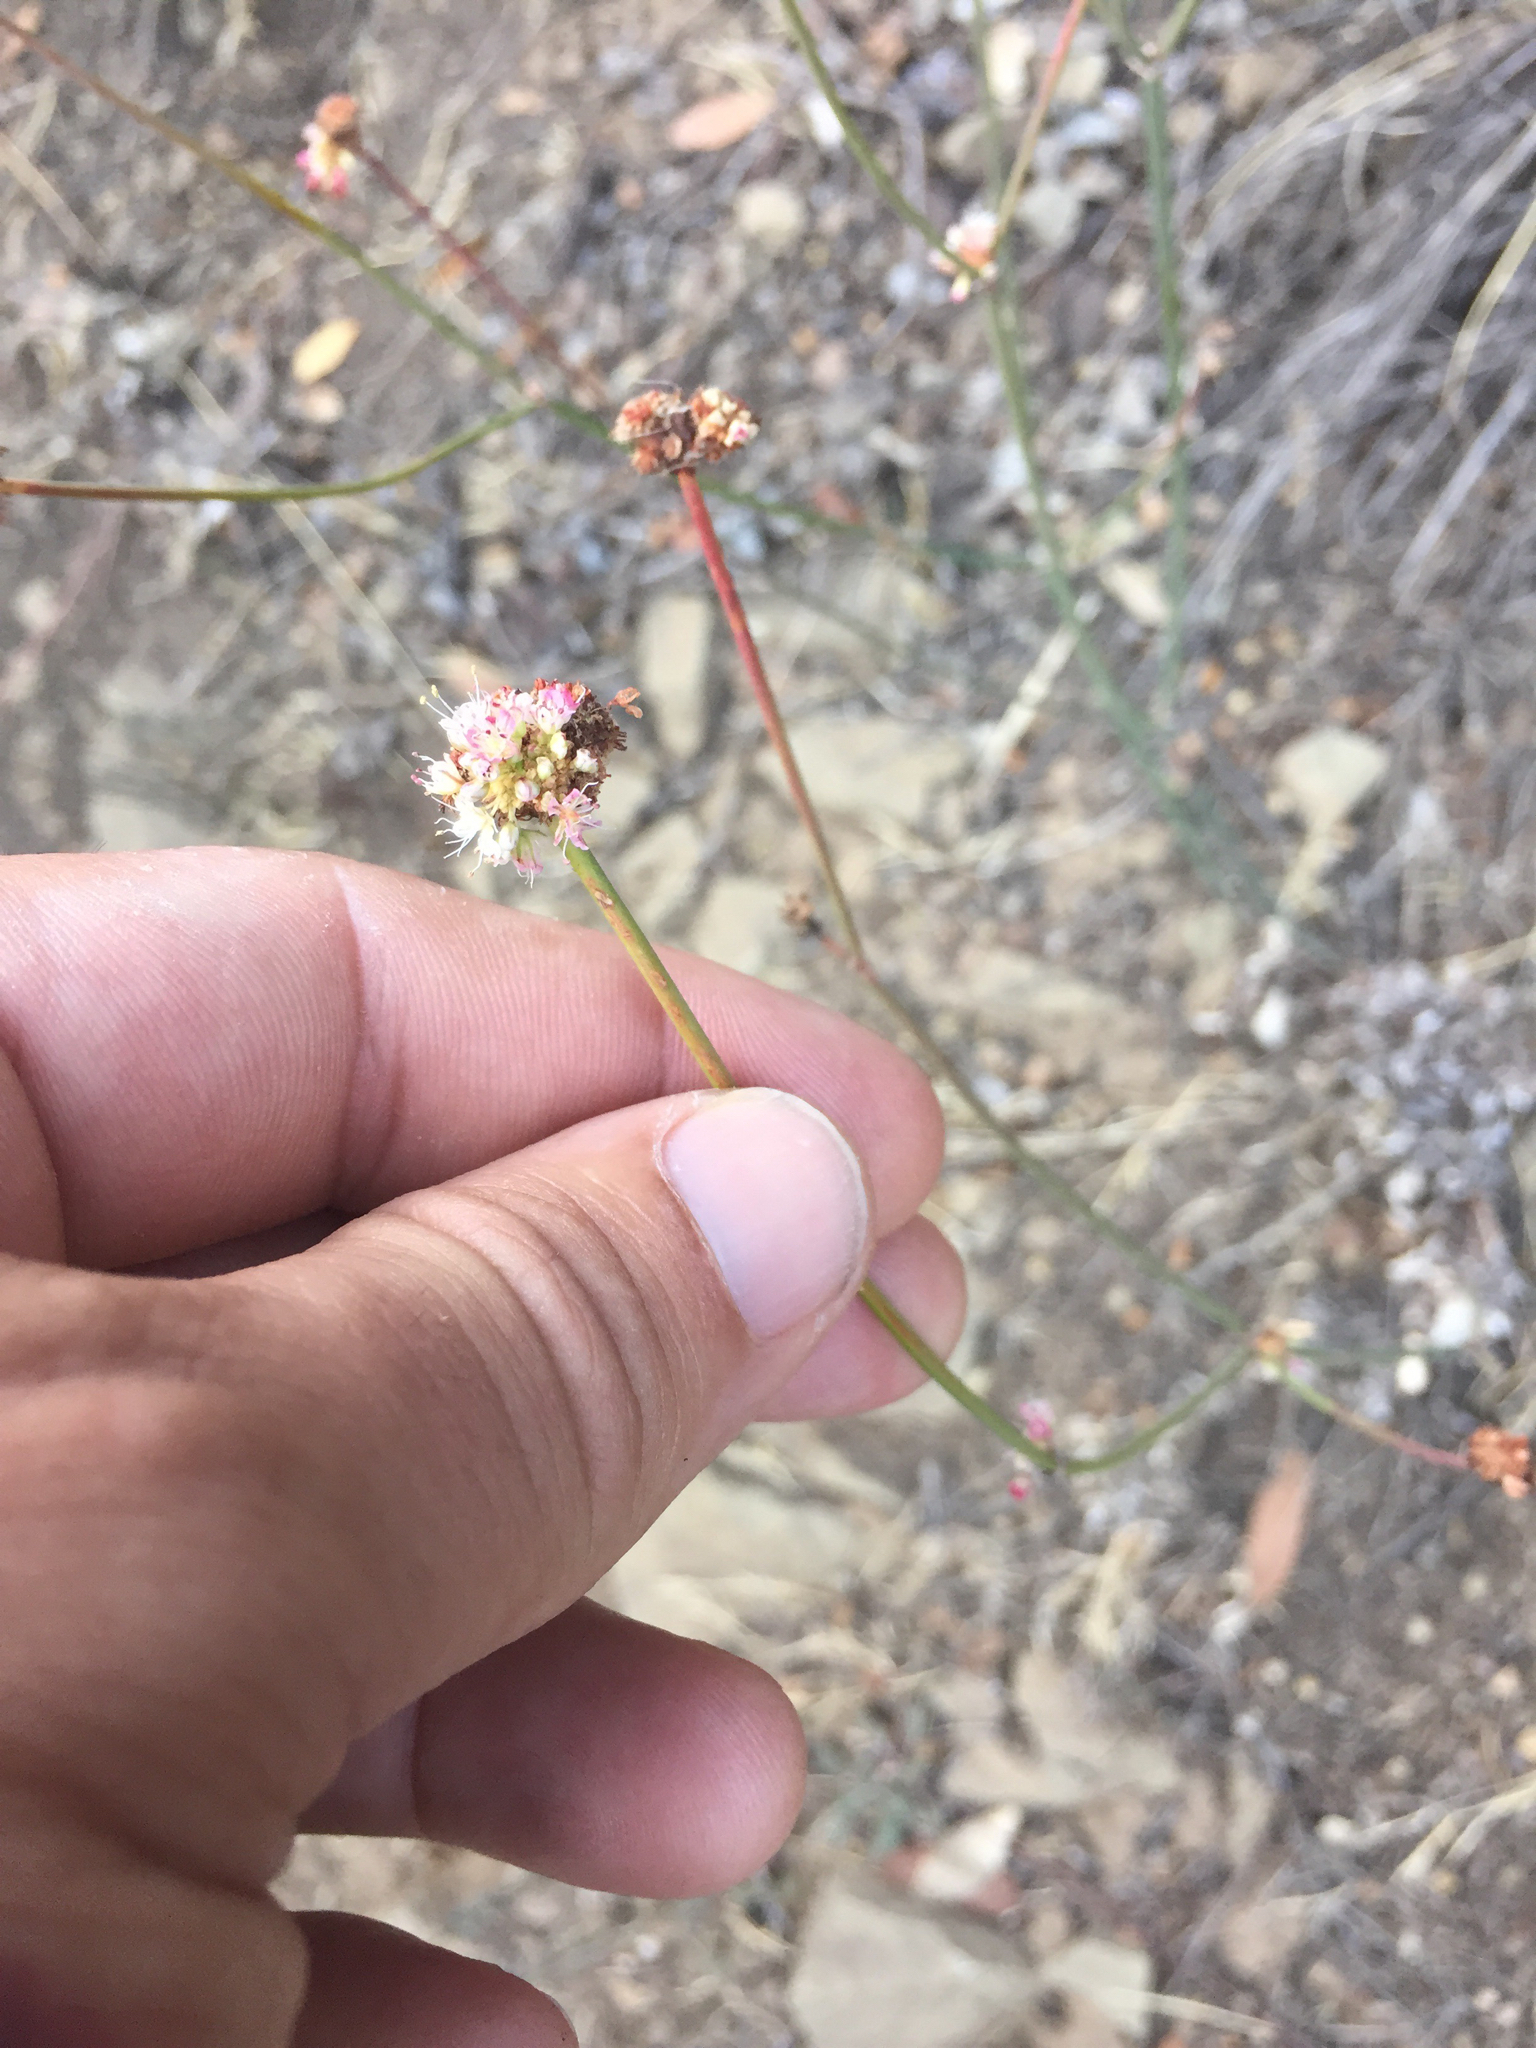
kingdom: Plantae
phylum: Tracheophyta
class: Magnoliopsida
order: Caryophyllales
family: Polygonaceae
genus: Eriogonum
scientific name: Eriogonum nudum
